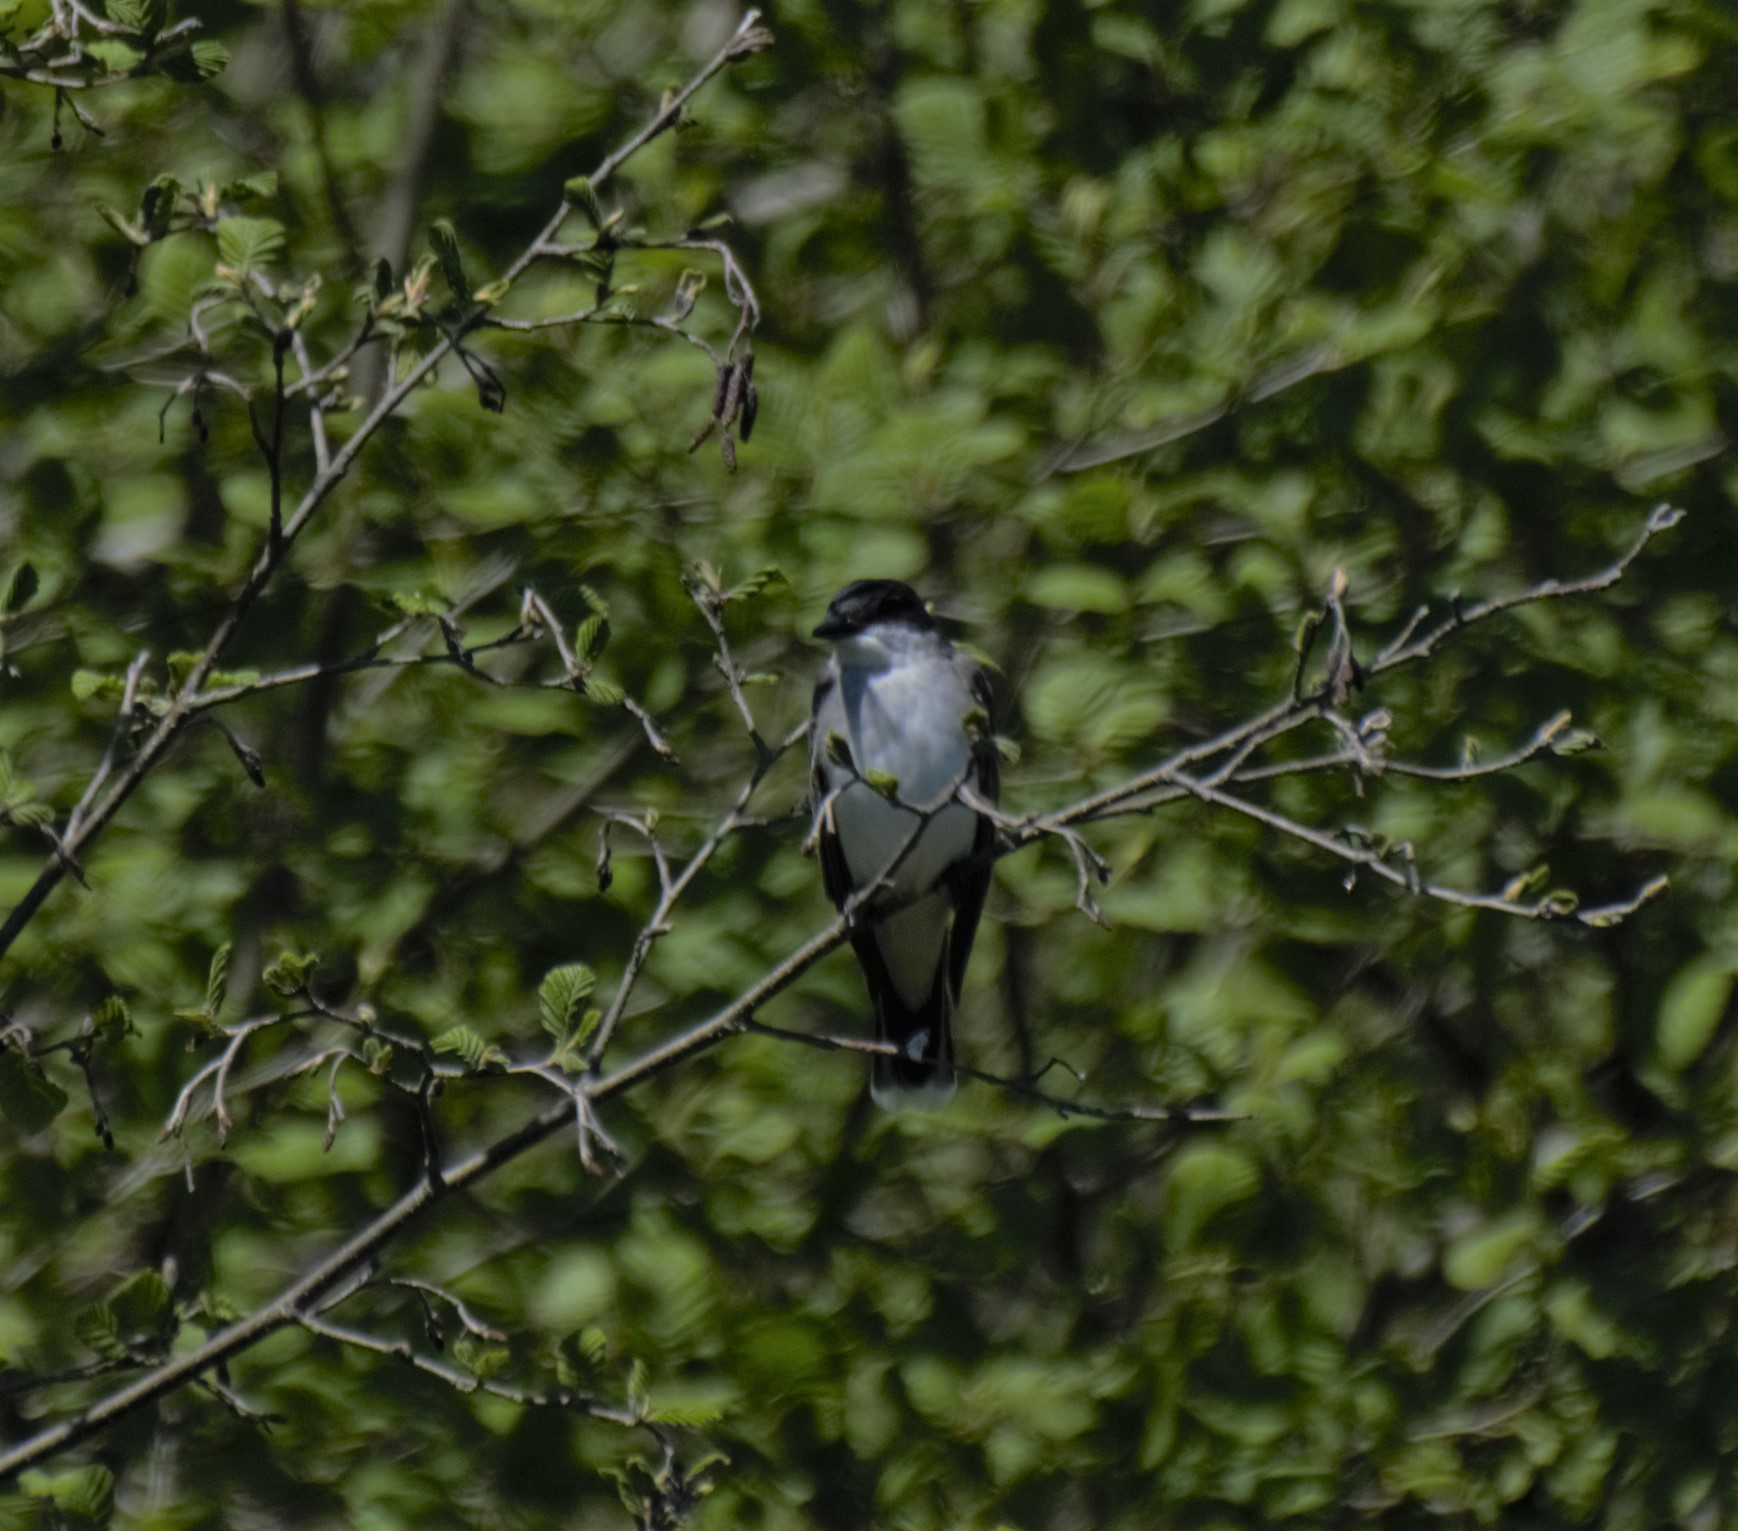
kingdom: Animalia
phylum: Chordata
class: Aves
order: Passeriformes
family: Tyrannidae
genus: Tyrannus
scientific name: Tyrannus tyrannus
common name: Eastern kingbird
